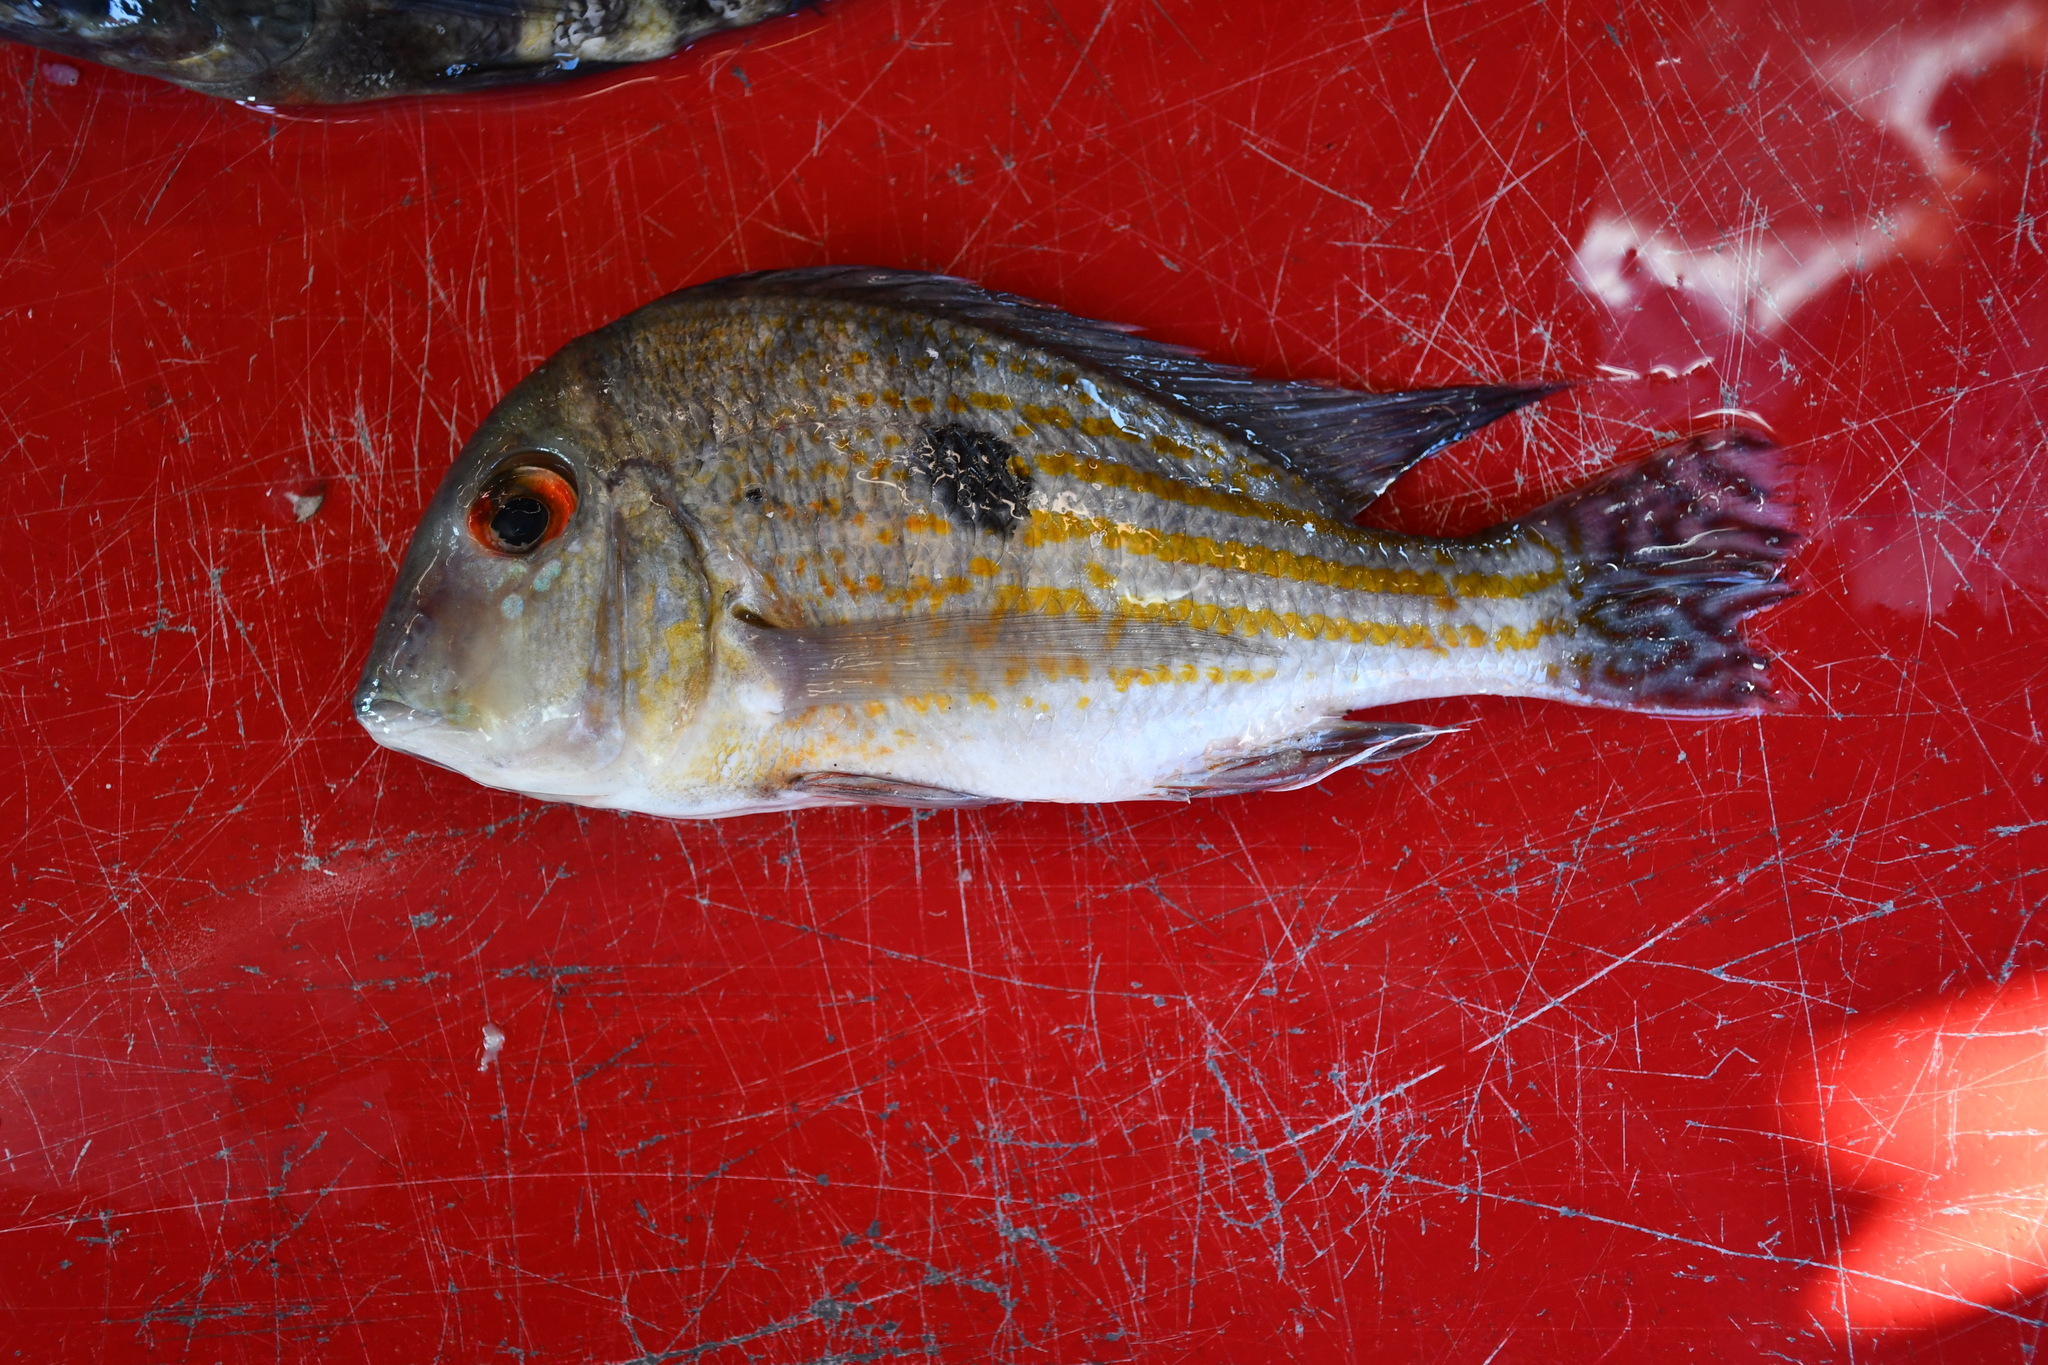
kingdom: Animalia
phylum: Chordata
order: Perciformes
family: Cichlidae
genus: Geophagus
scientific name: Geophagus megasema
